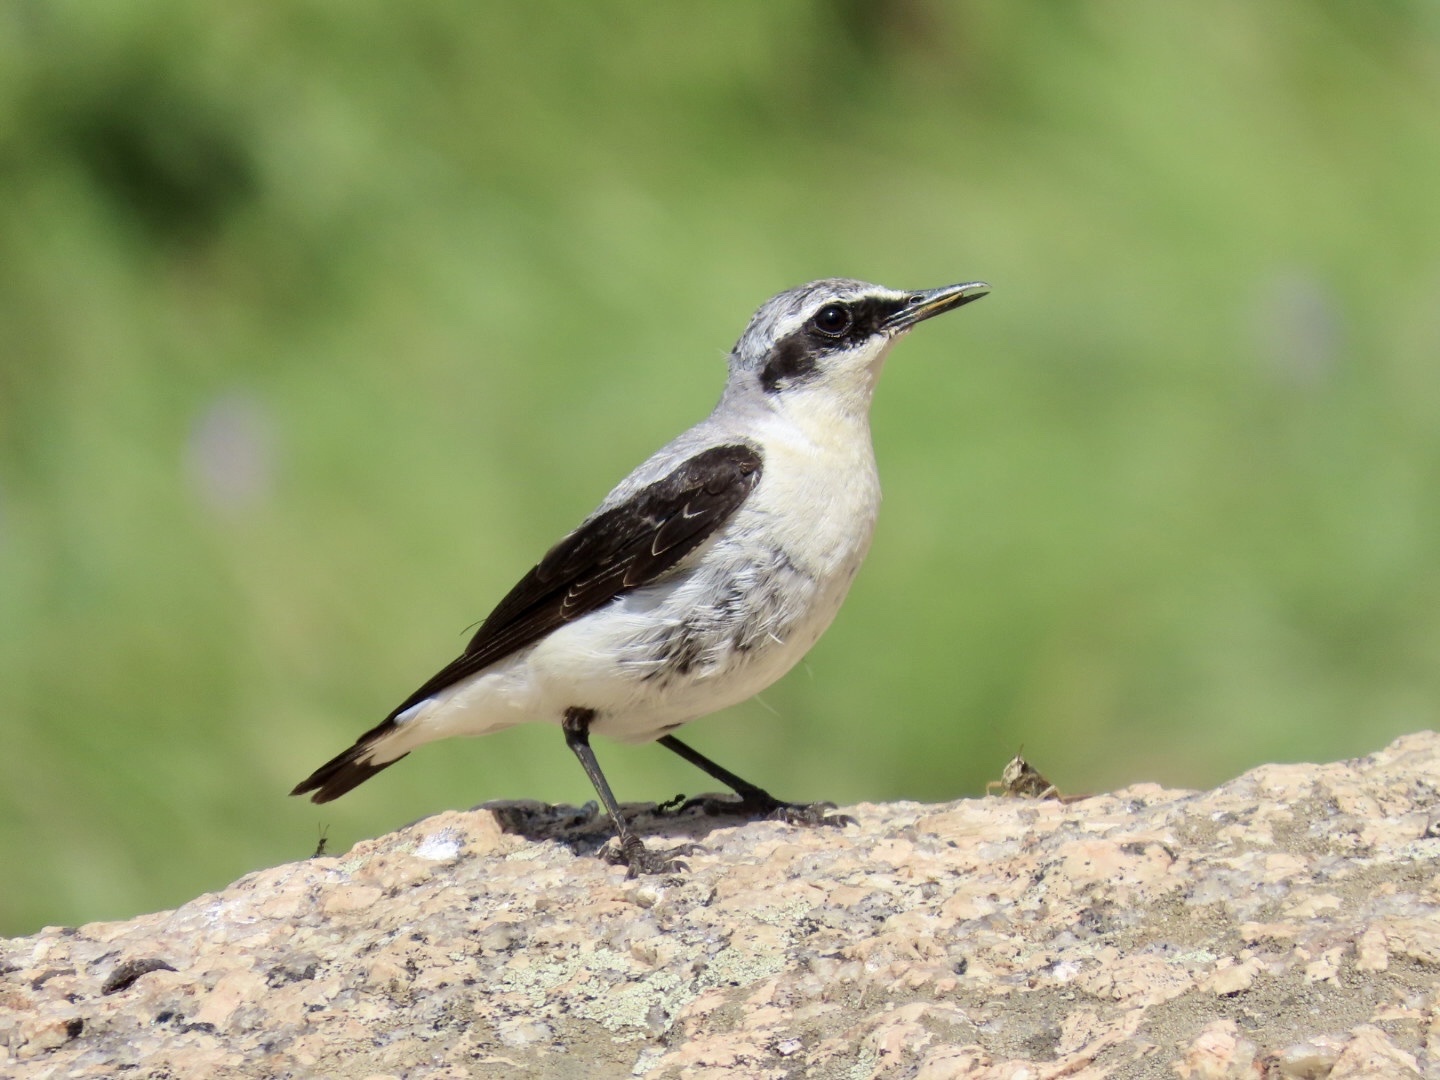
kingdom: Animalia
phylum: Chordata
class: Aves
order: Passeriformes
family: Muscicapidae
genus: Oenanthe
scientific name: Oenanthe oenanthe
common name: Northern wheatear
